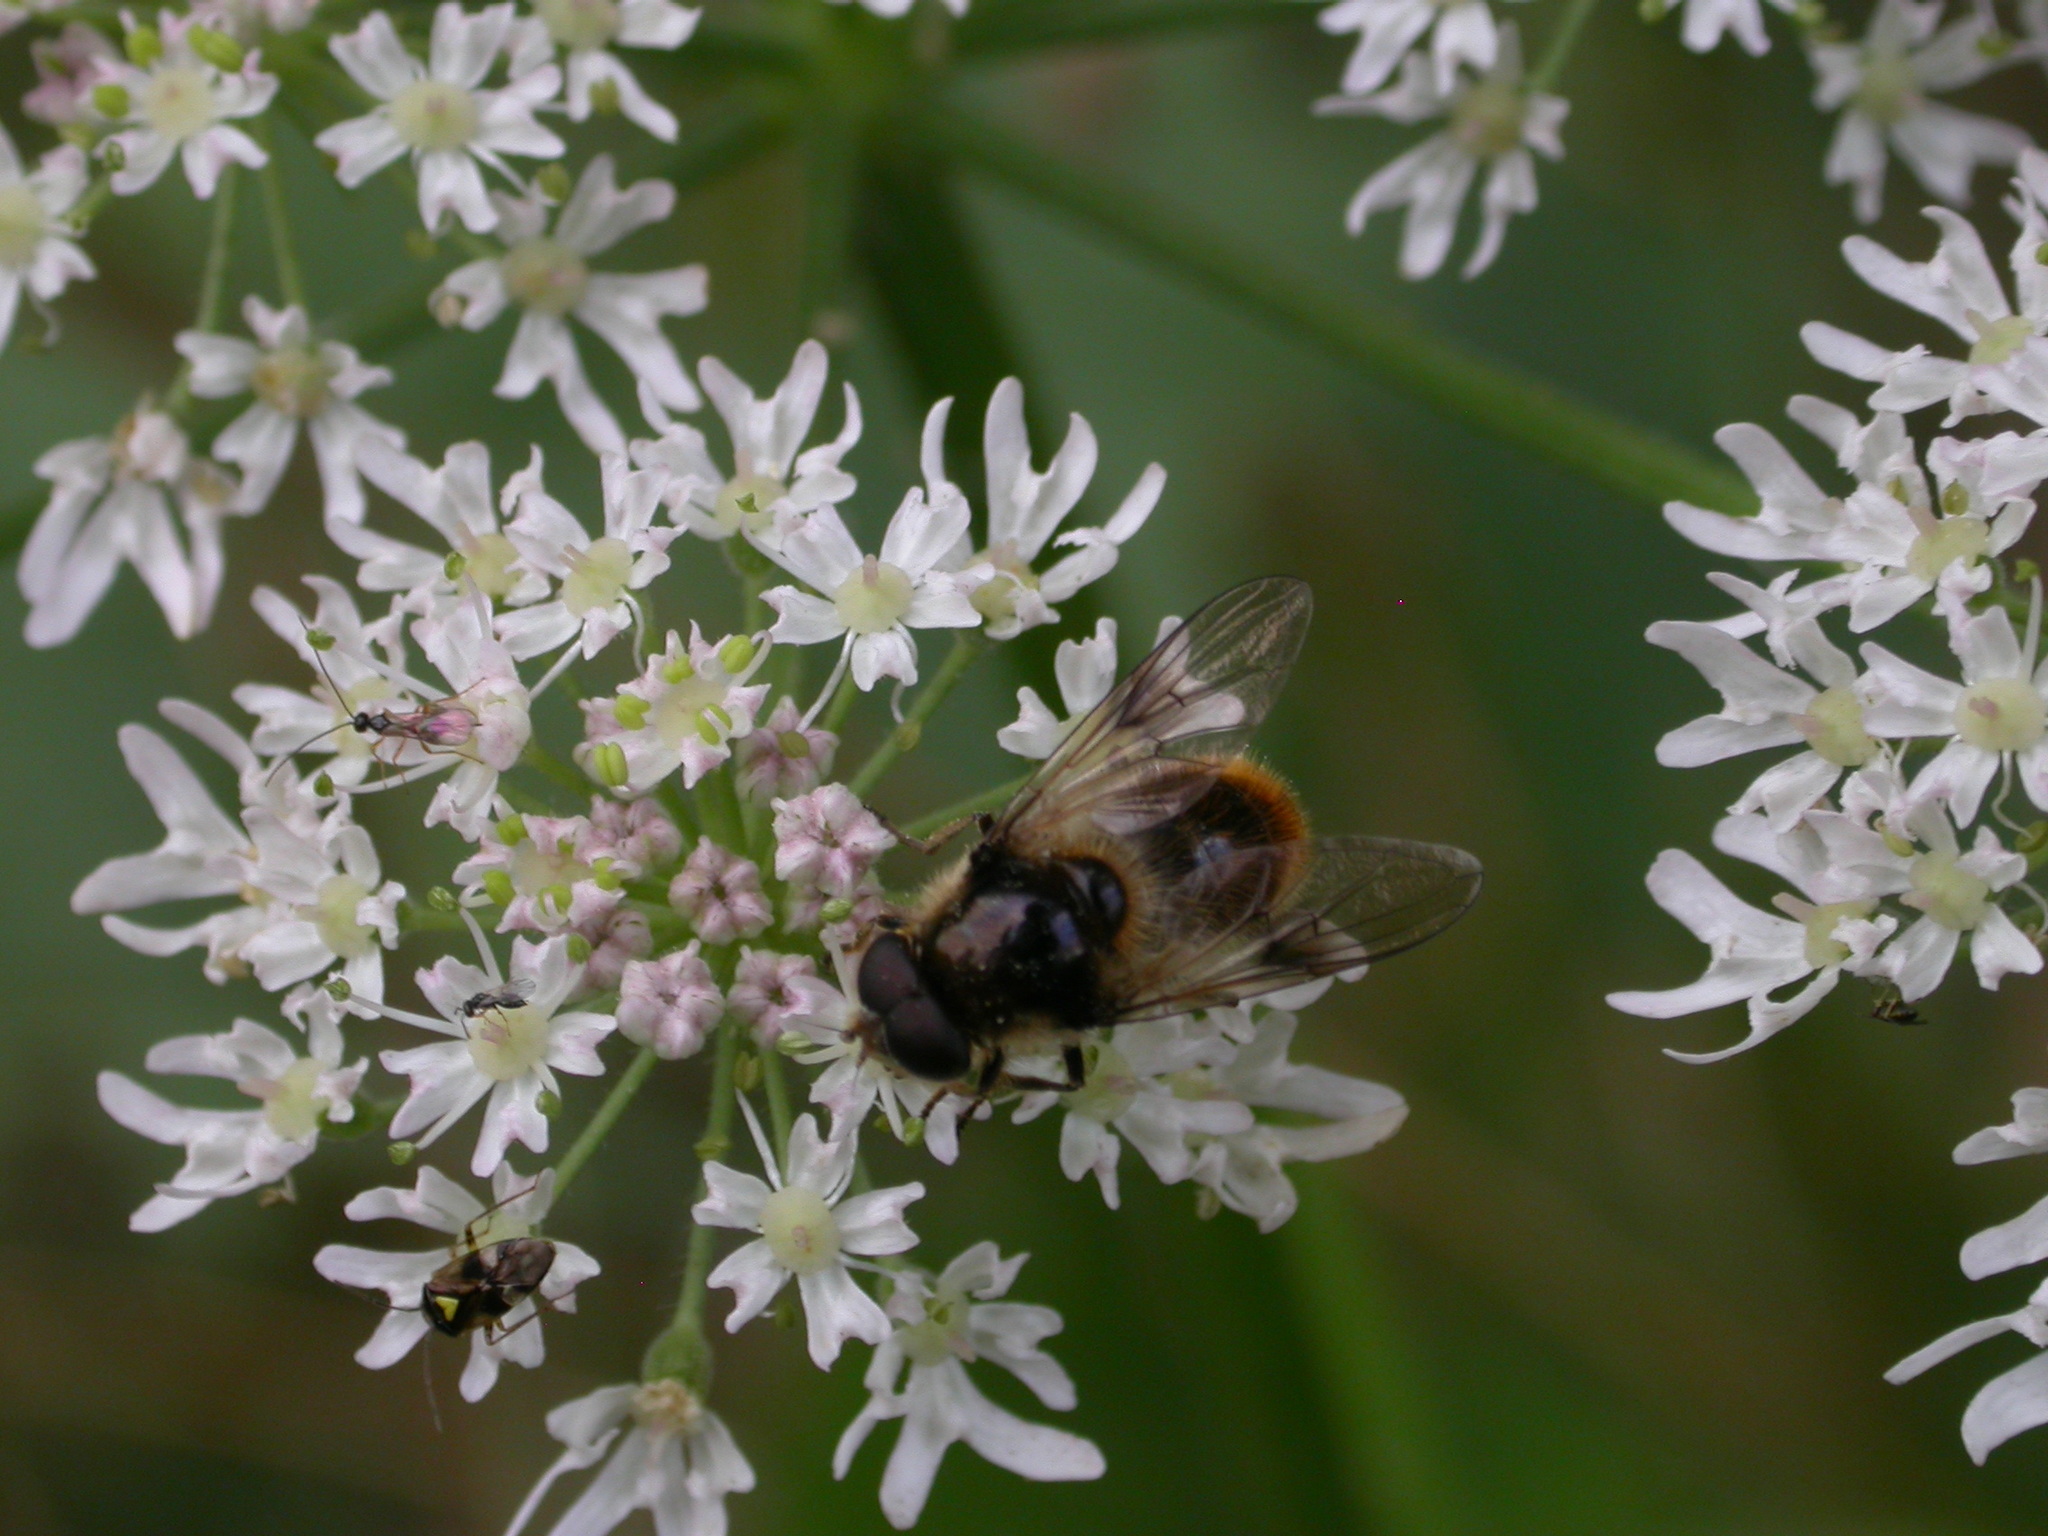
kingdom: Animalia
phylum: Arthropoda
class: Insecta
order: Diptera
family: Syrphidae
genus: Cheilosia
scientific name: Cheilosia illustrata
